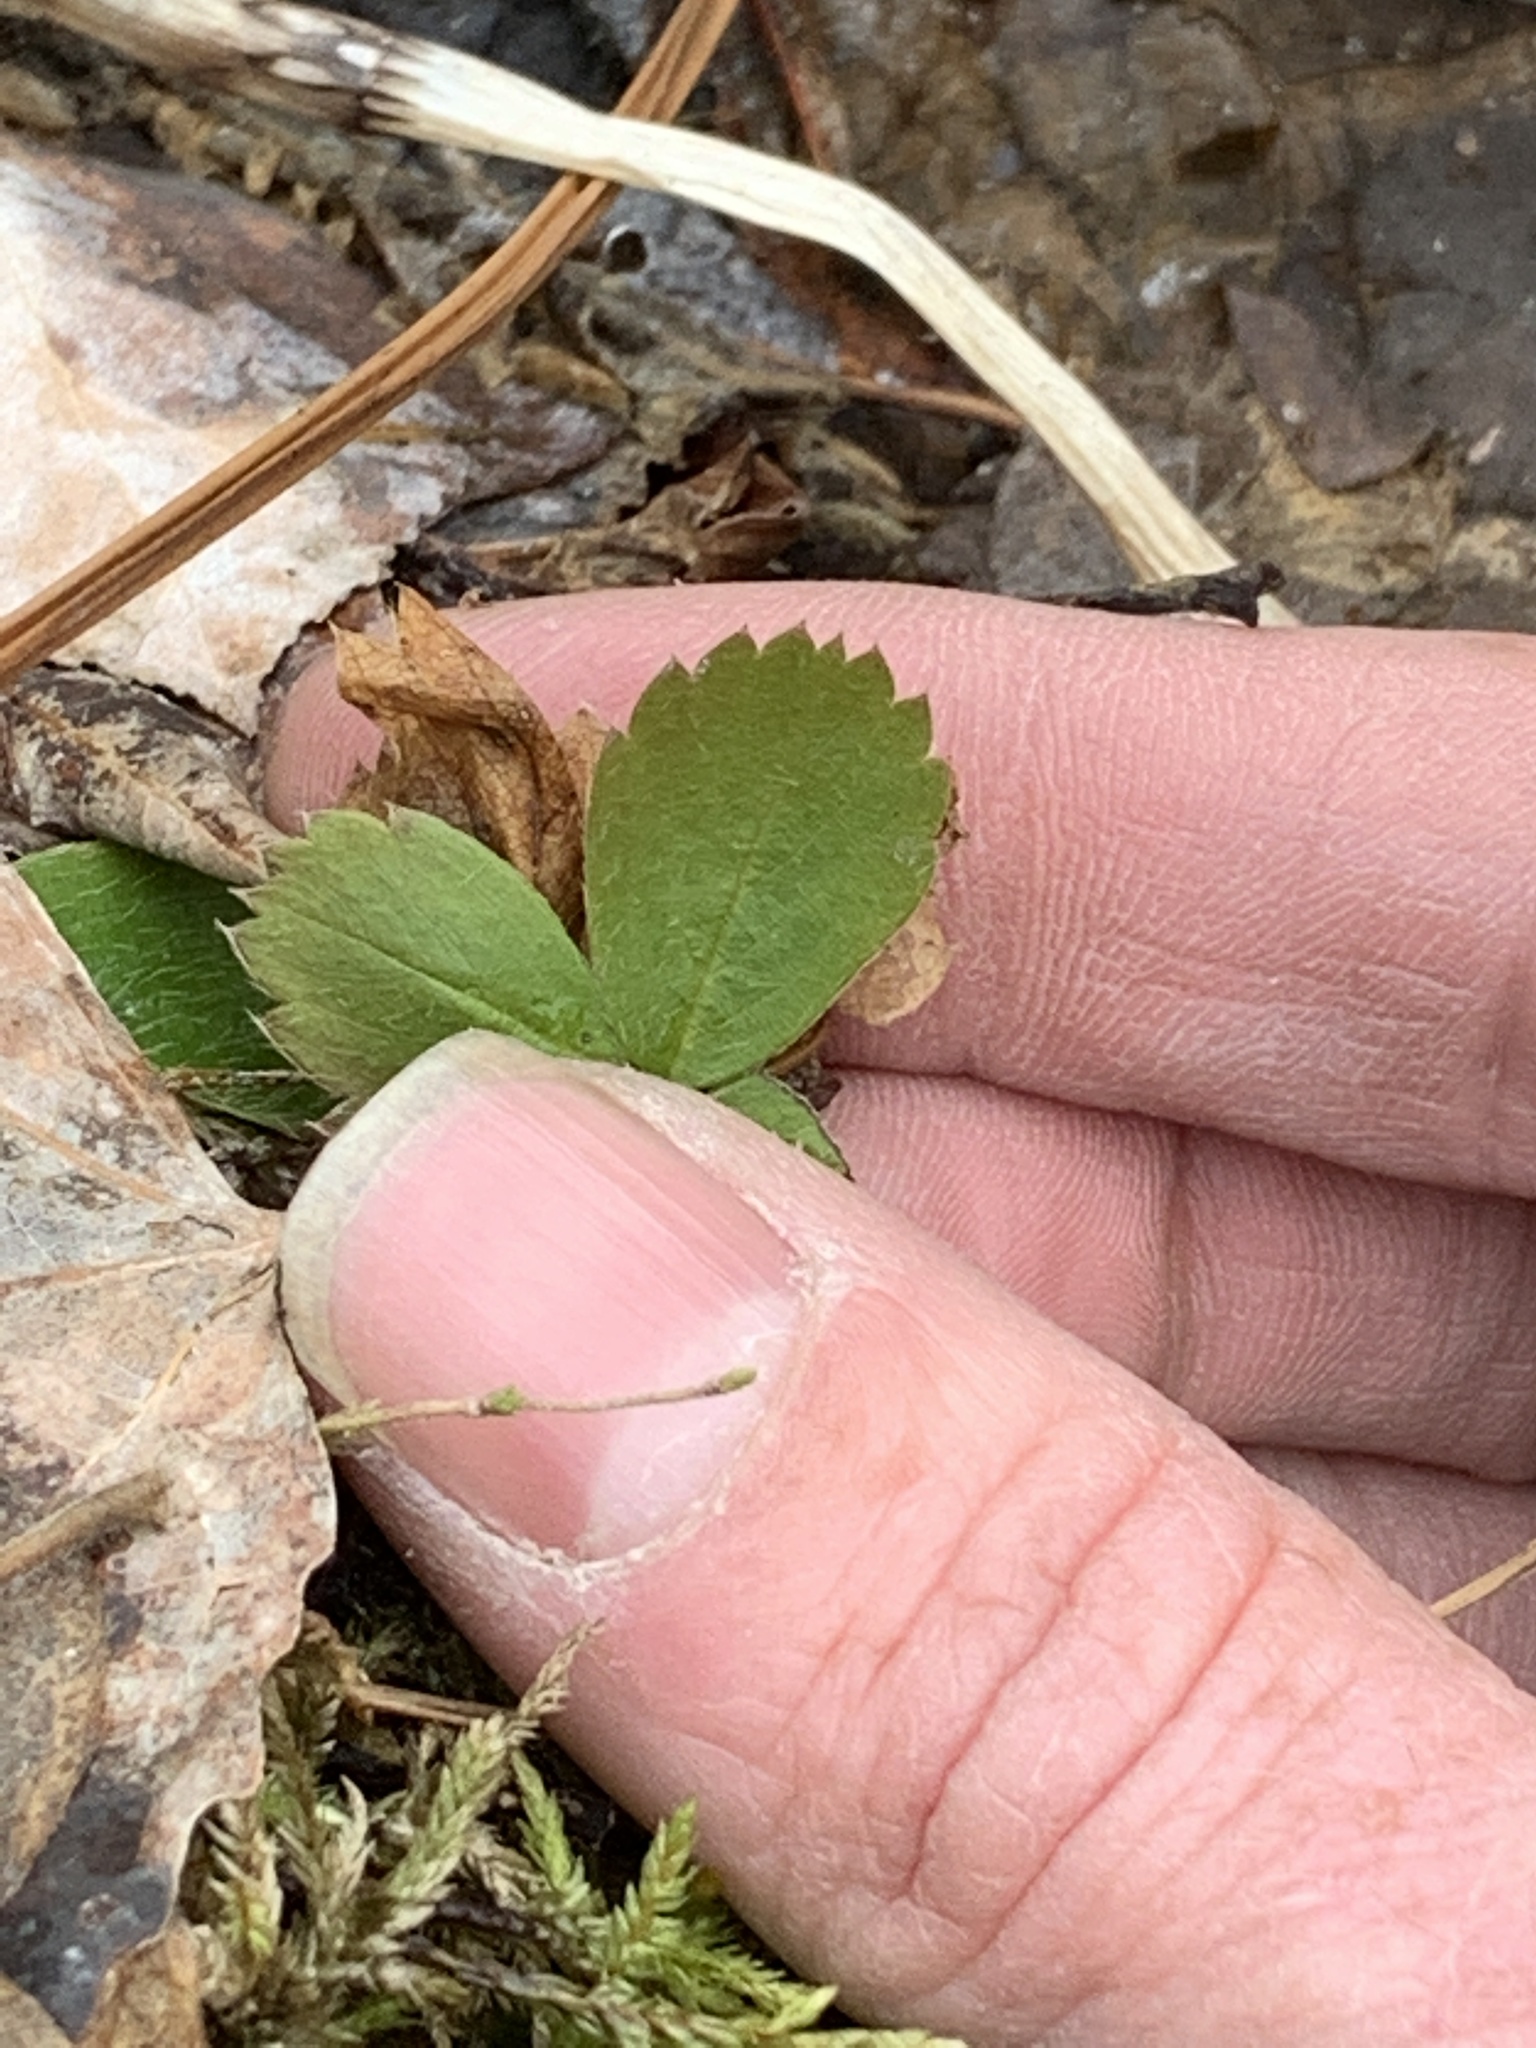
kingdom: Plantae
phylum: Tracheophyta
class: Magnoliopsida
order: Rosales
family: Rosaceae
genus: Fragaria
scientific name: Fragaria virginiana
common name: Thickleaved wild strawberry
